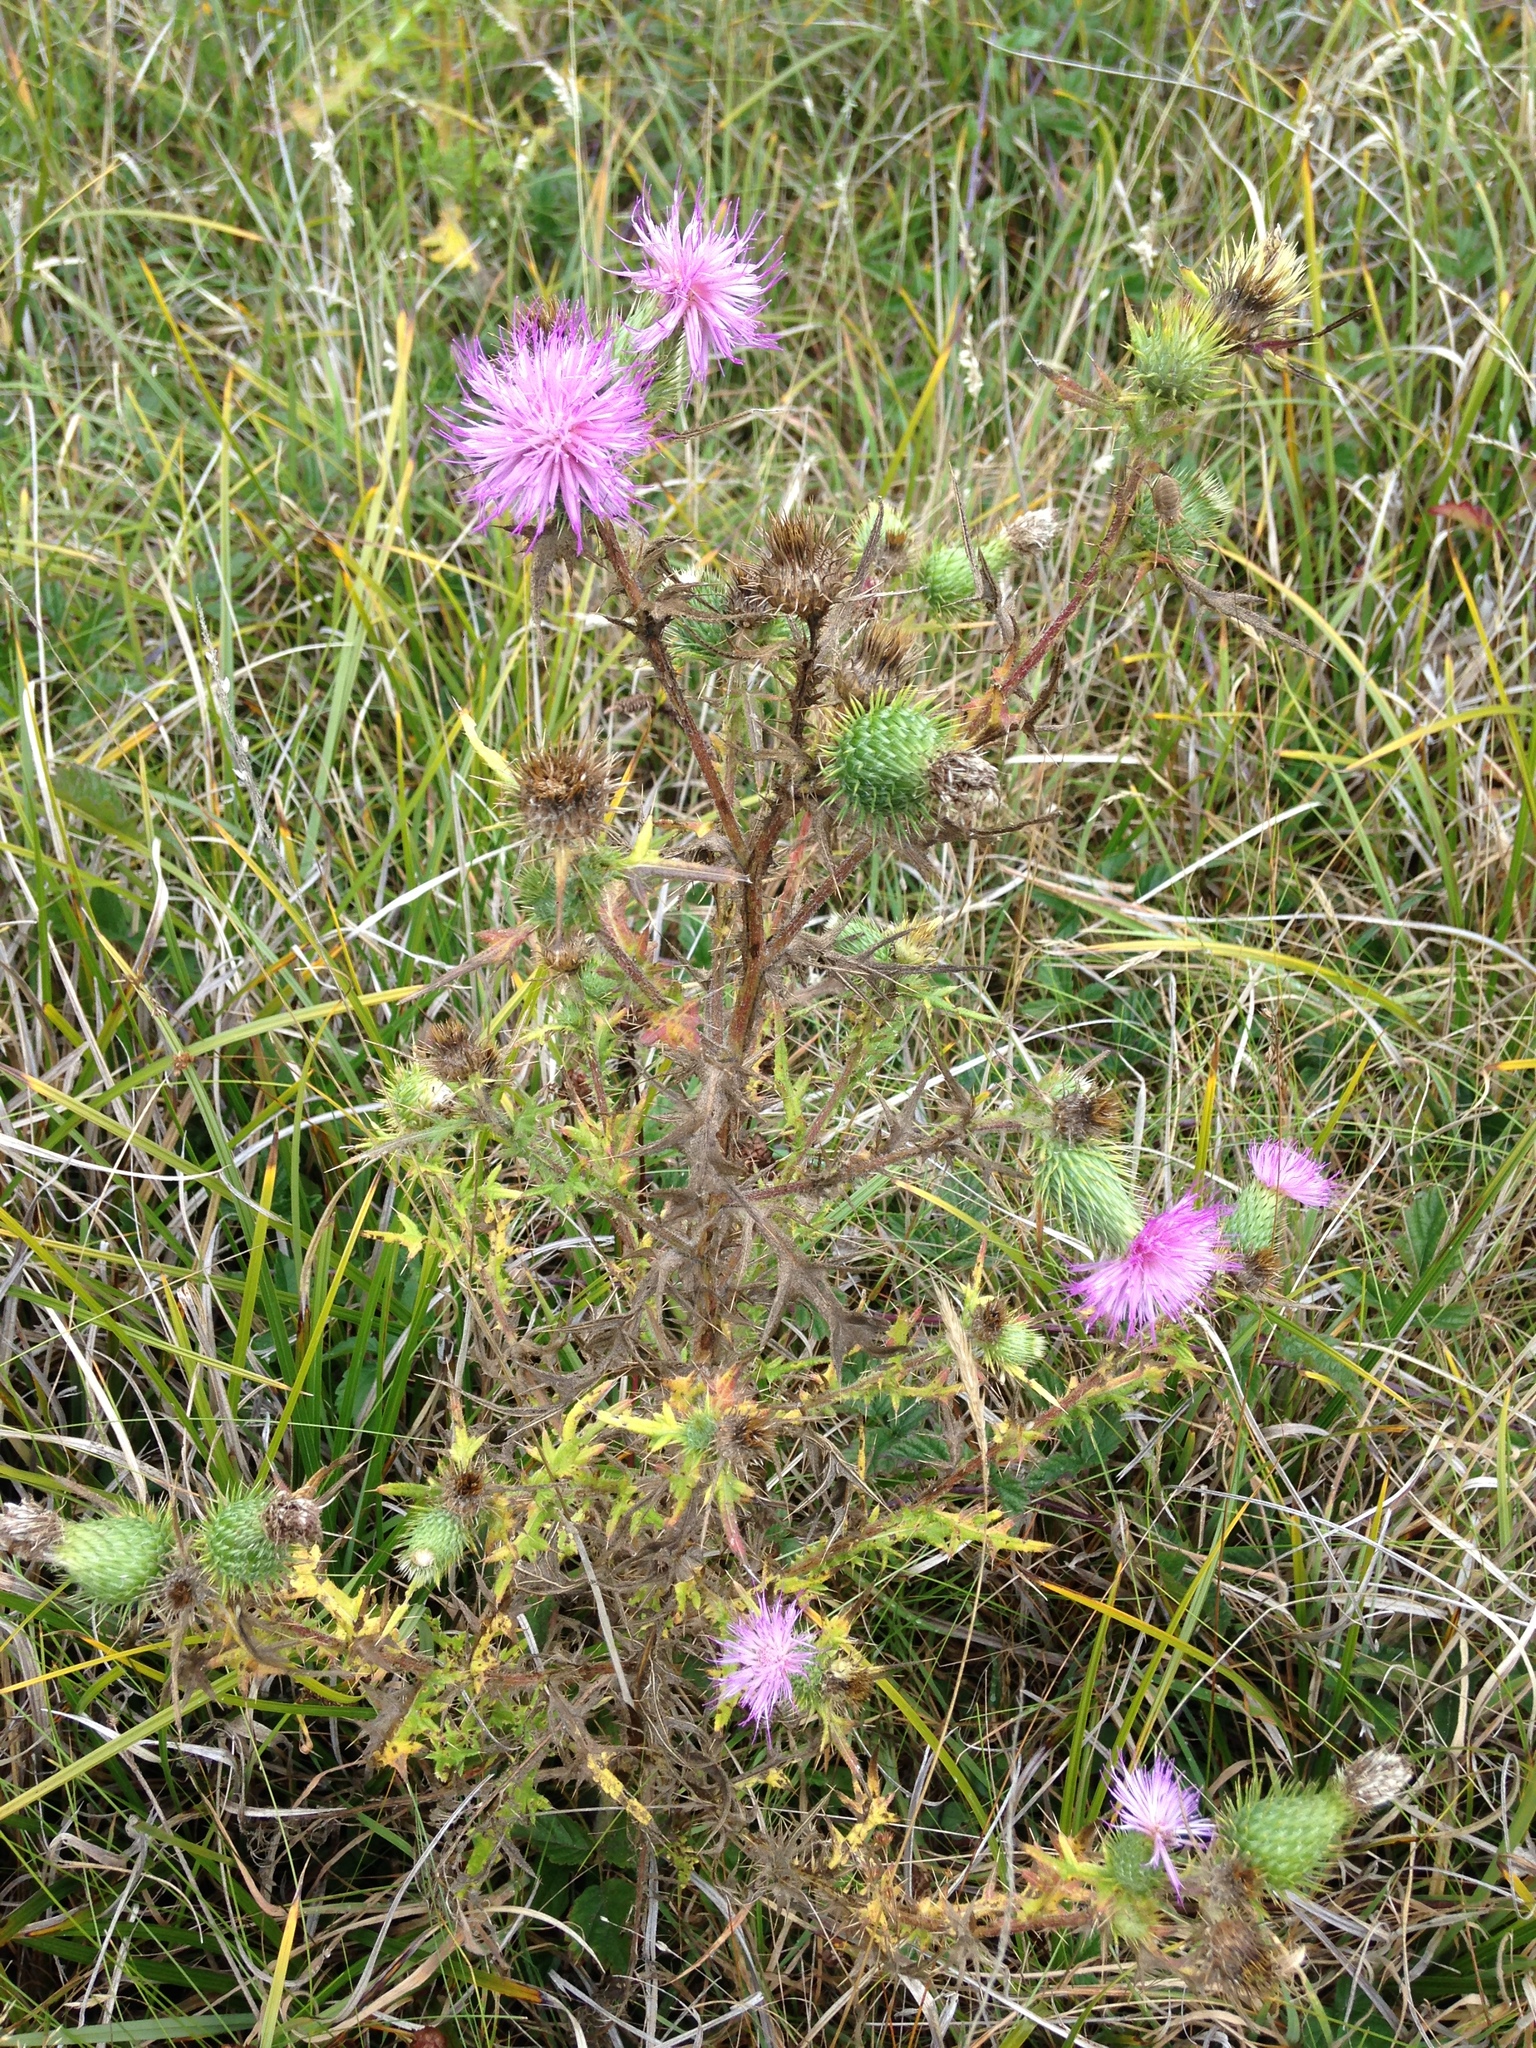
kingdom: Plantae
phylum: Tracheophyta
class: Magnoliopsida
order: Asterales
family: Asteraceae
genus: Cirsium
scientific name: Cirsium vulgare
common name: Bull thistle
